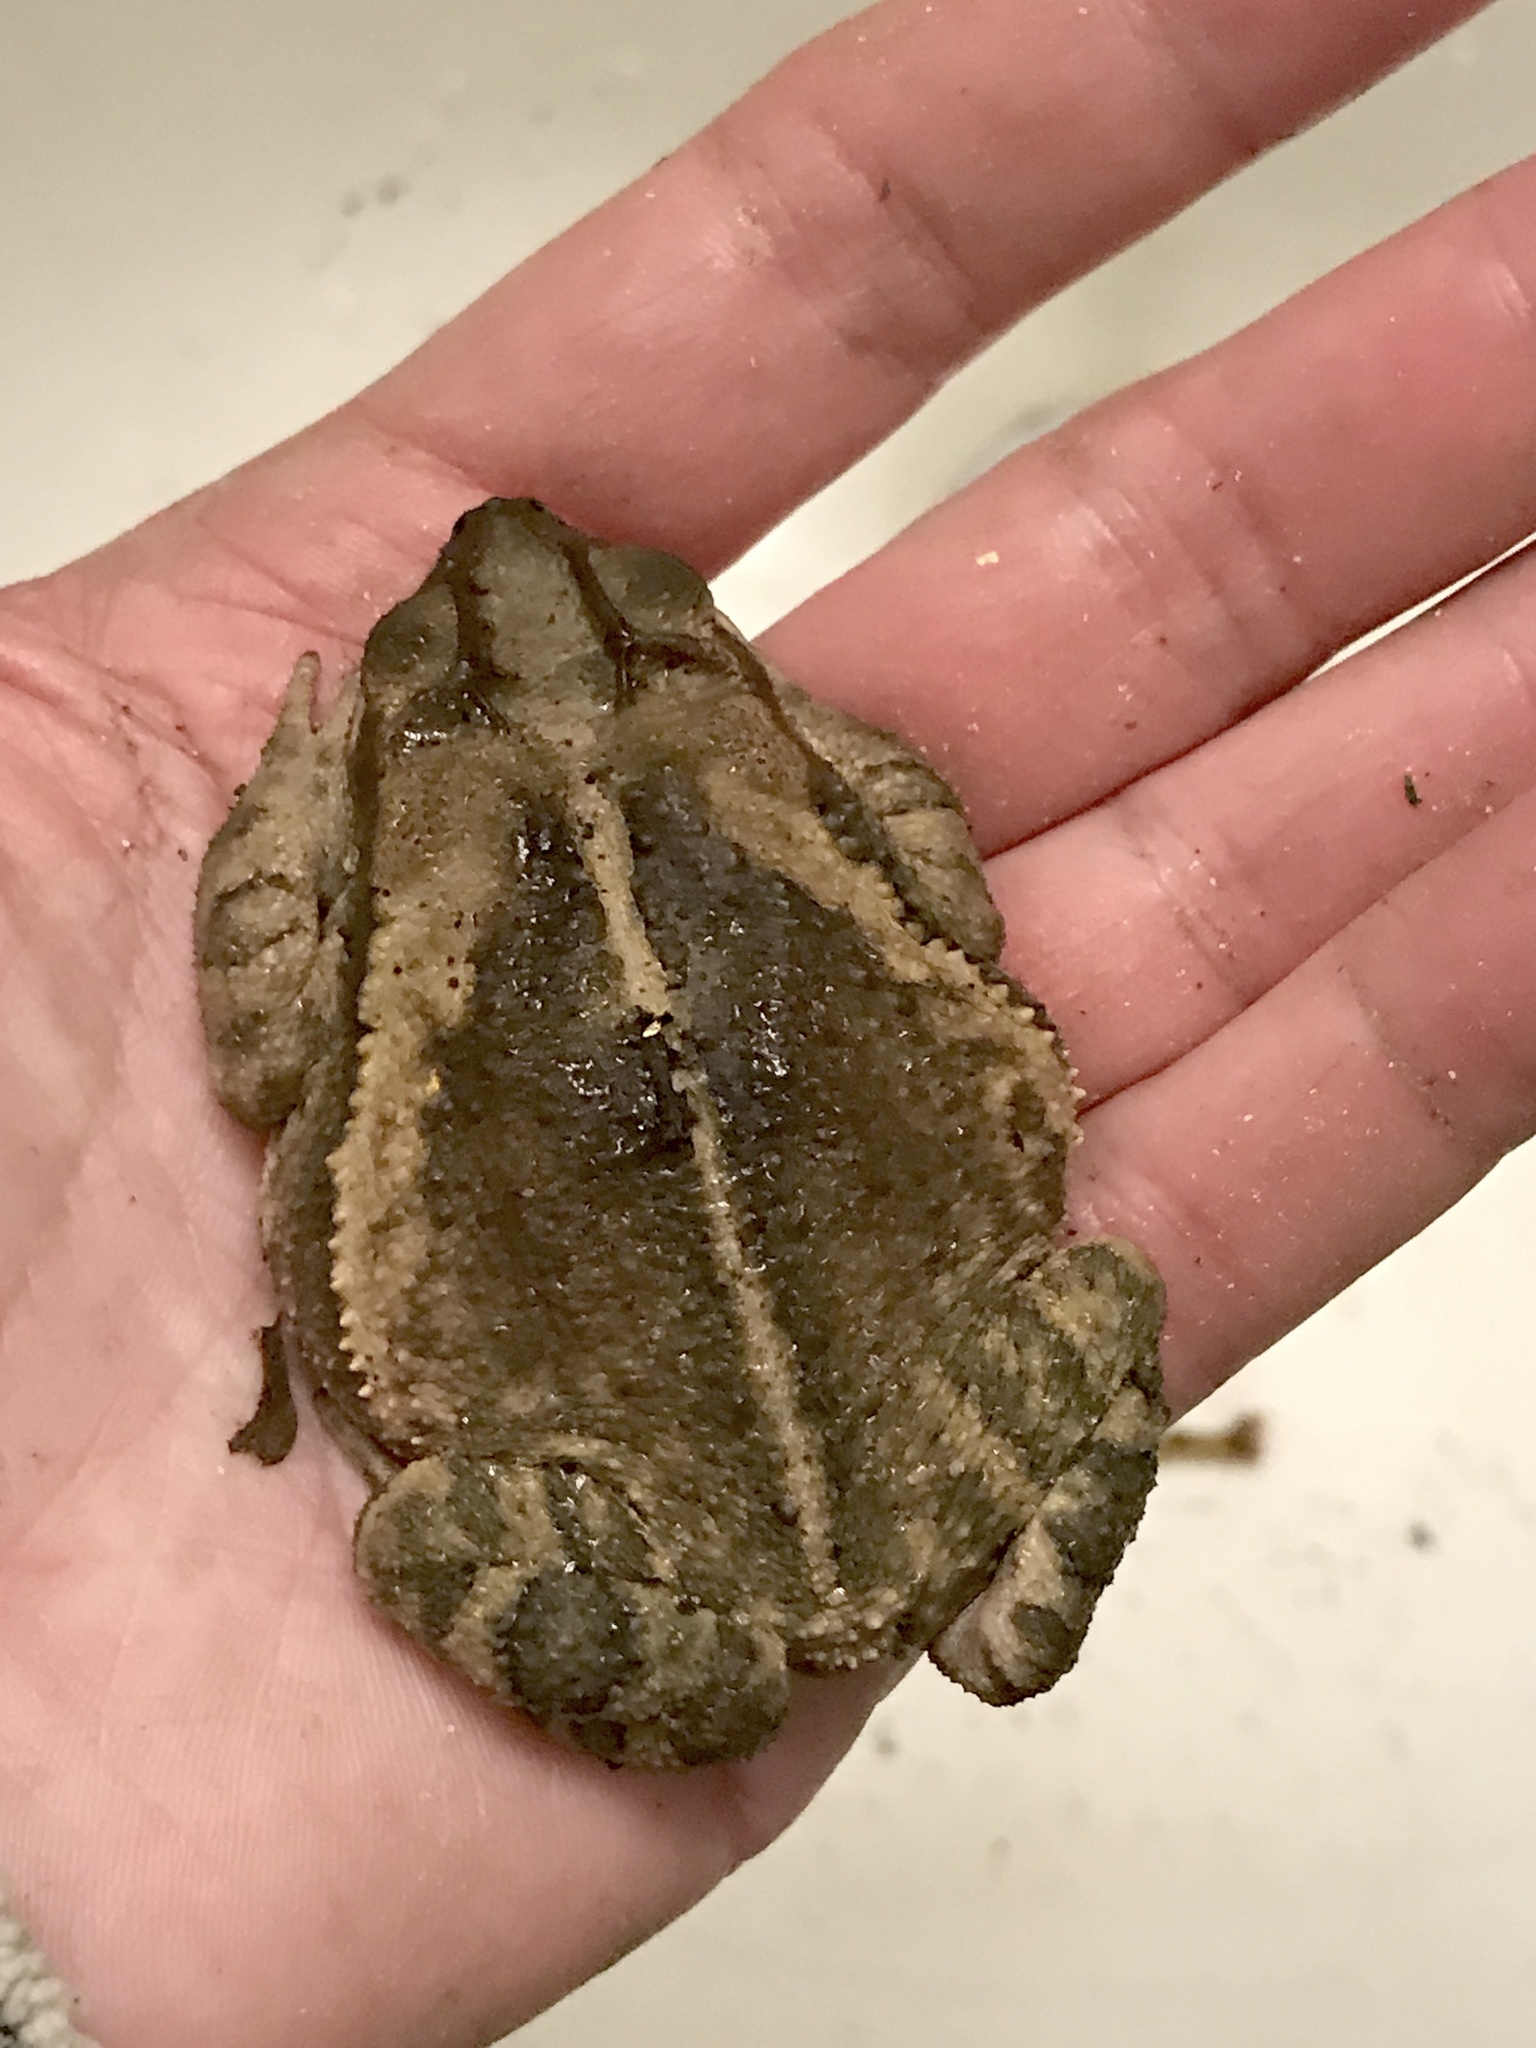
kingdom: Animalia
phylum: Chordata
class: Amphibia
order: Anura
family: Bufonidae
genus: Incilius
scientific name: Incilius nebulifer
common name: Gulf coast toad
